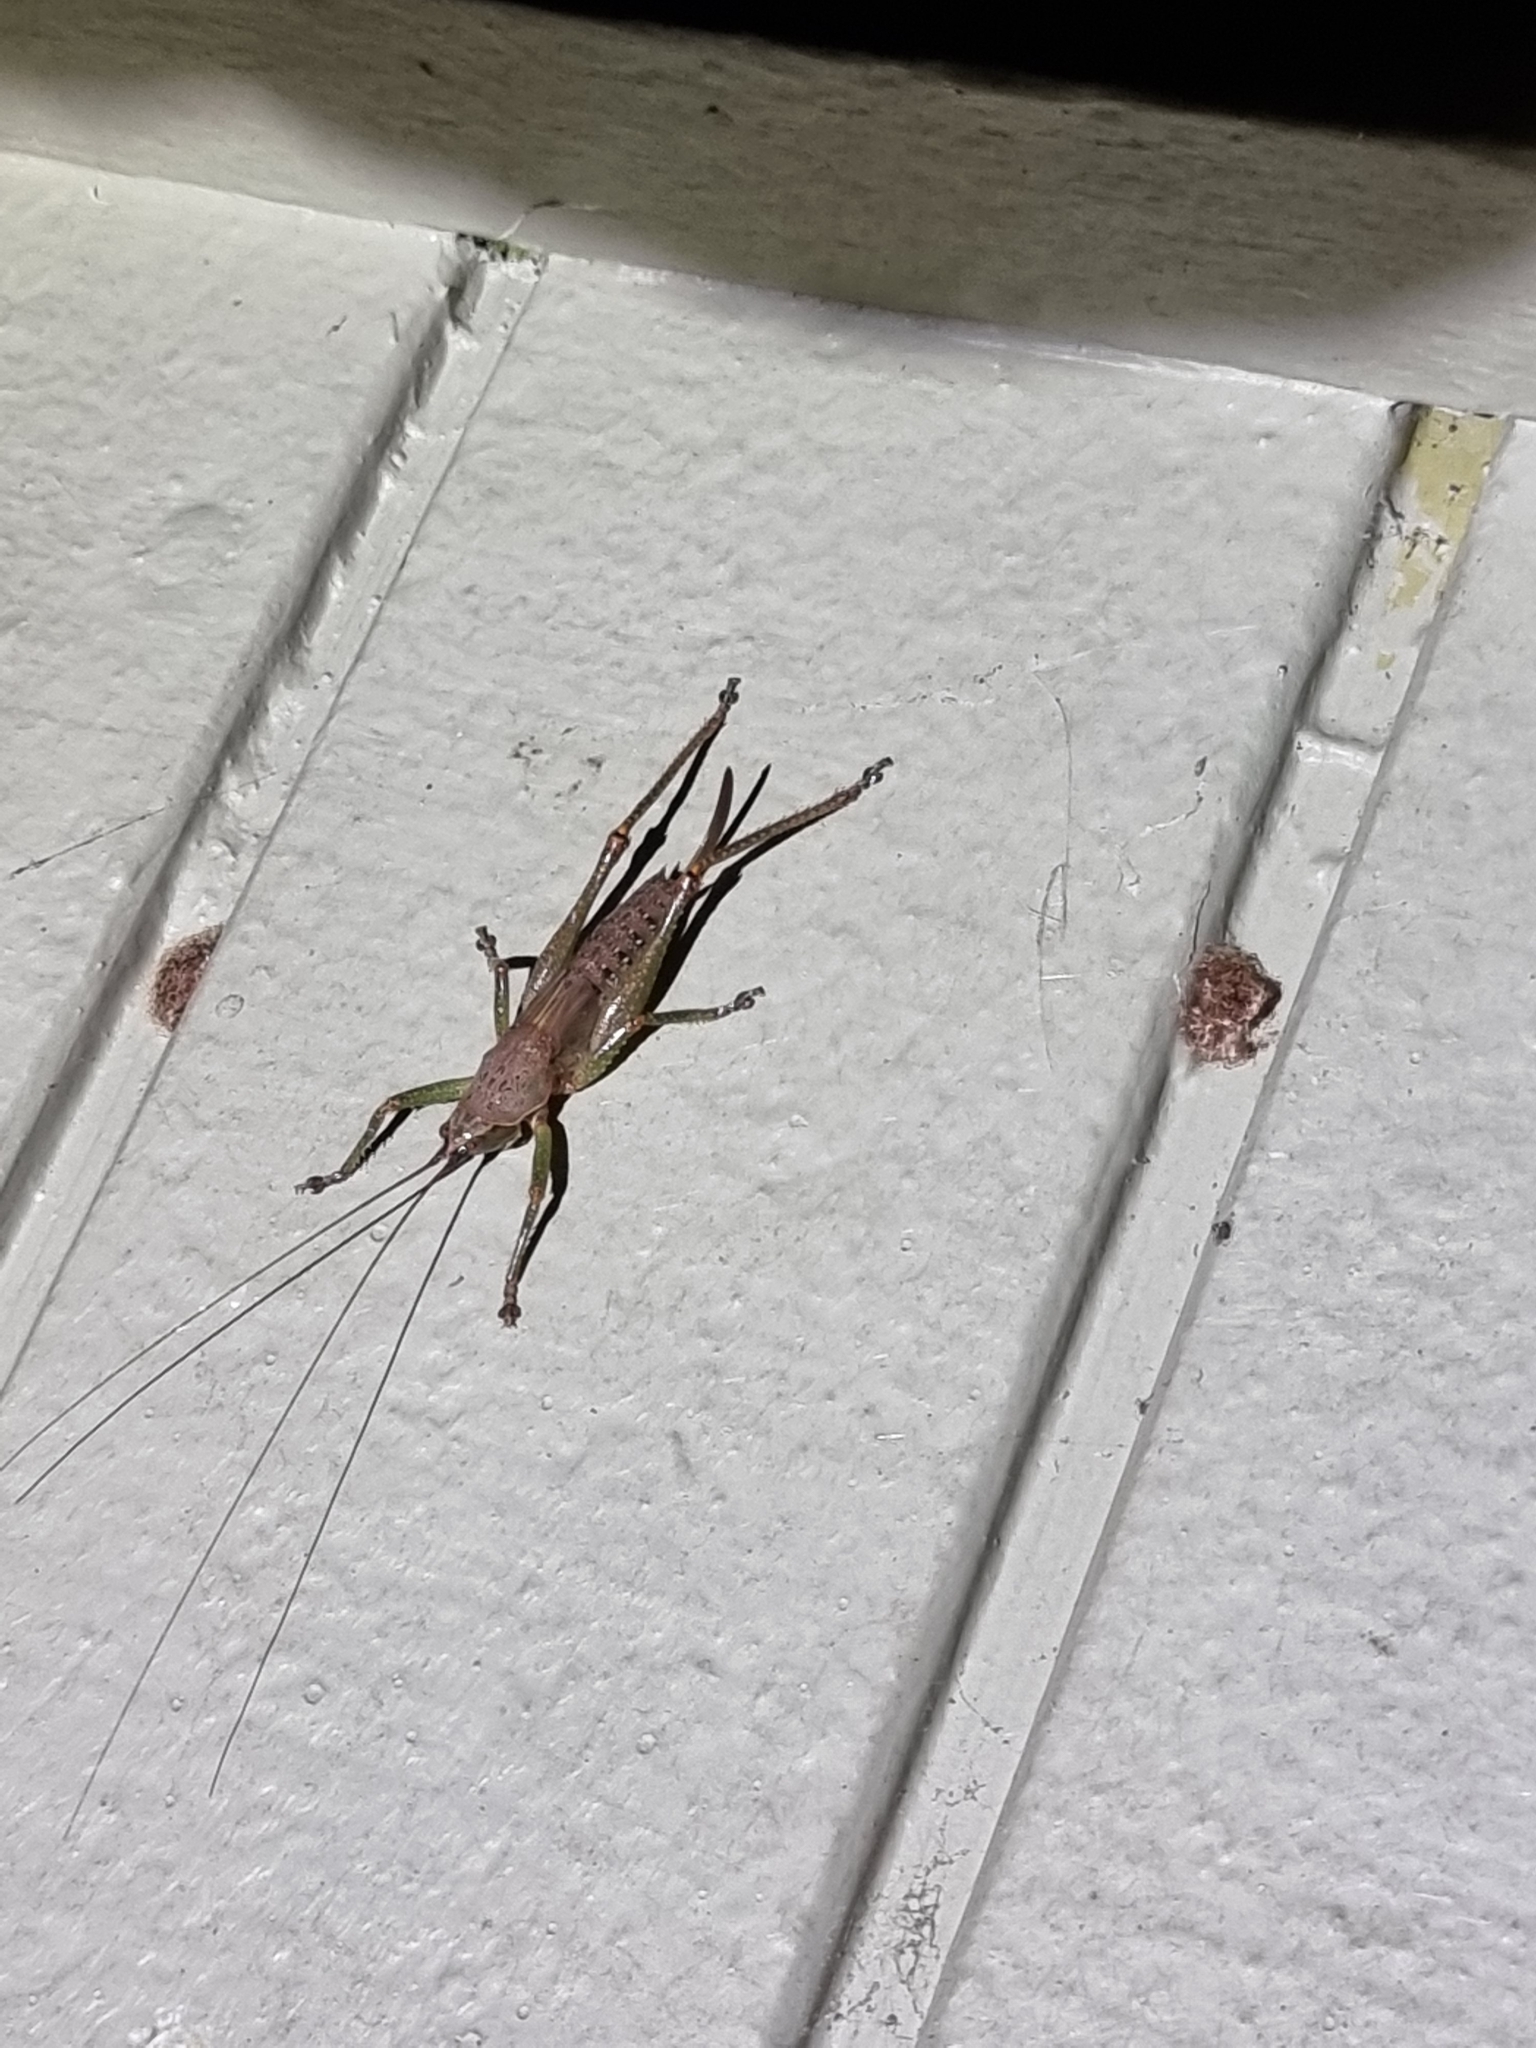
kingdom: Animalia
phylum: Arthropoda
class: Insecta
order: Orthoptera
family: Tettigoniidae
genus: Austrosalomona
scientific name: Austrosalomona falcata
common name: Olive-green coastal katydid
